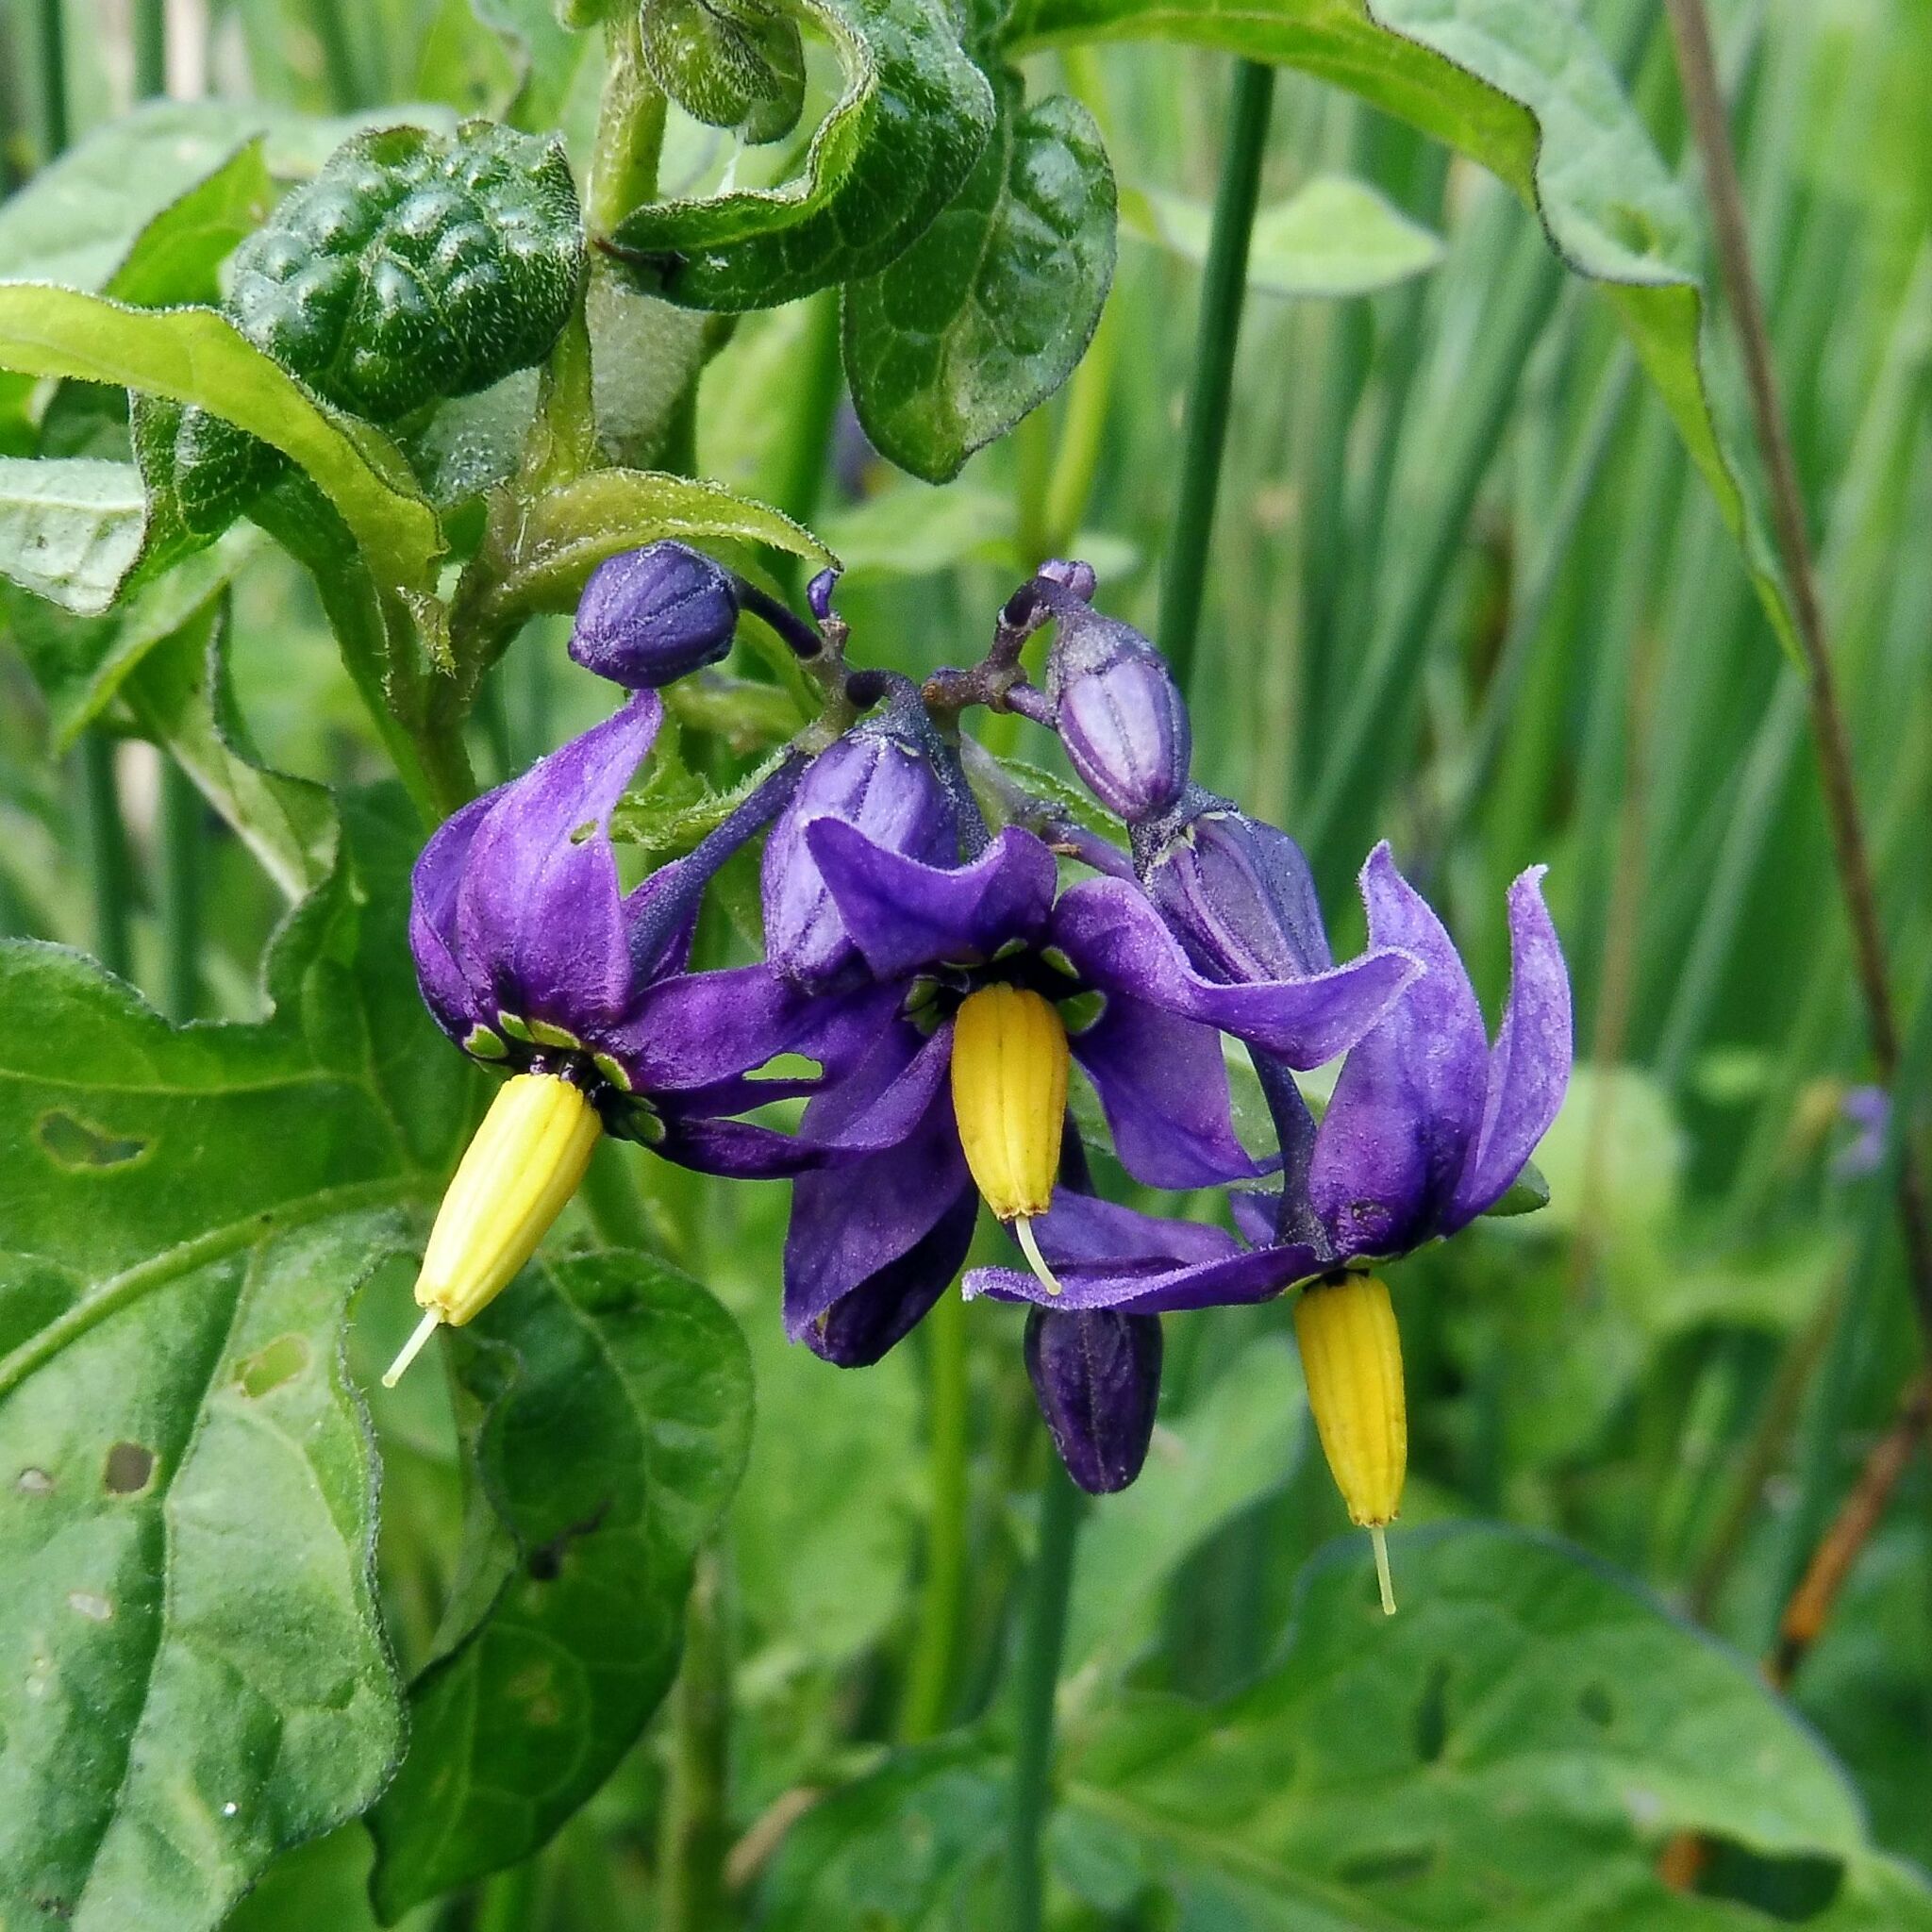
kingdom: Plantae
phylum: Tracheophyta
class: Magnoliopsida
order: Solanales
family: Solanaceae
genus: Solanum
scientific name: Solanum dulcamara
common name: Climbing nightshade
